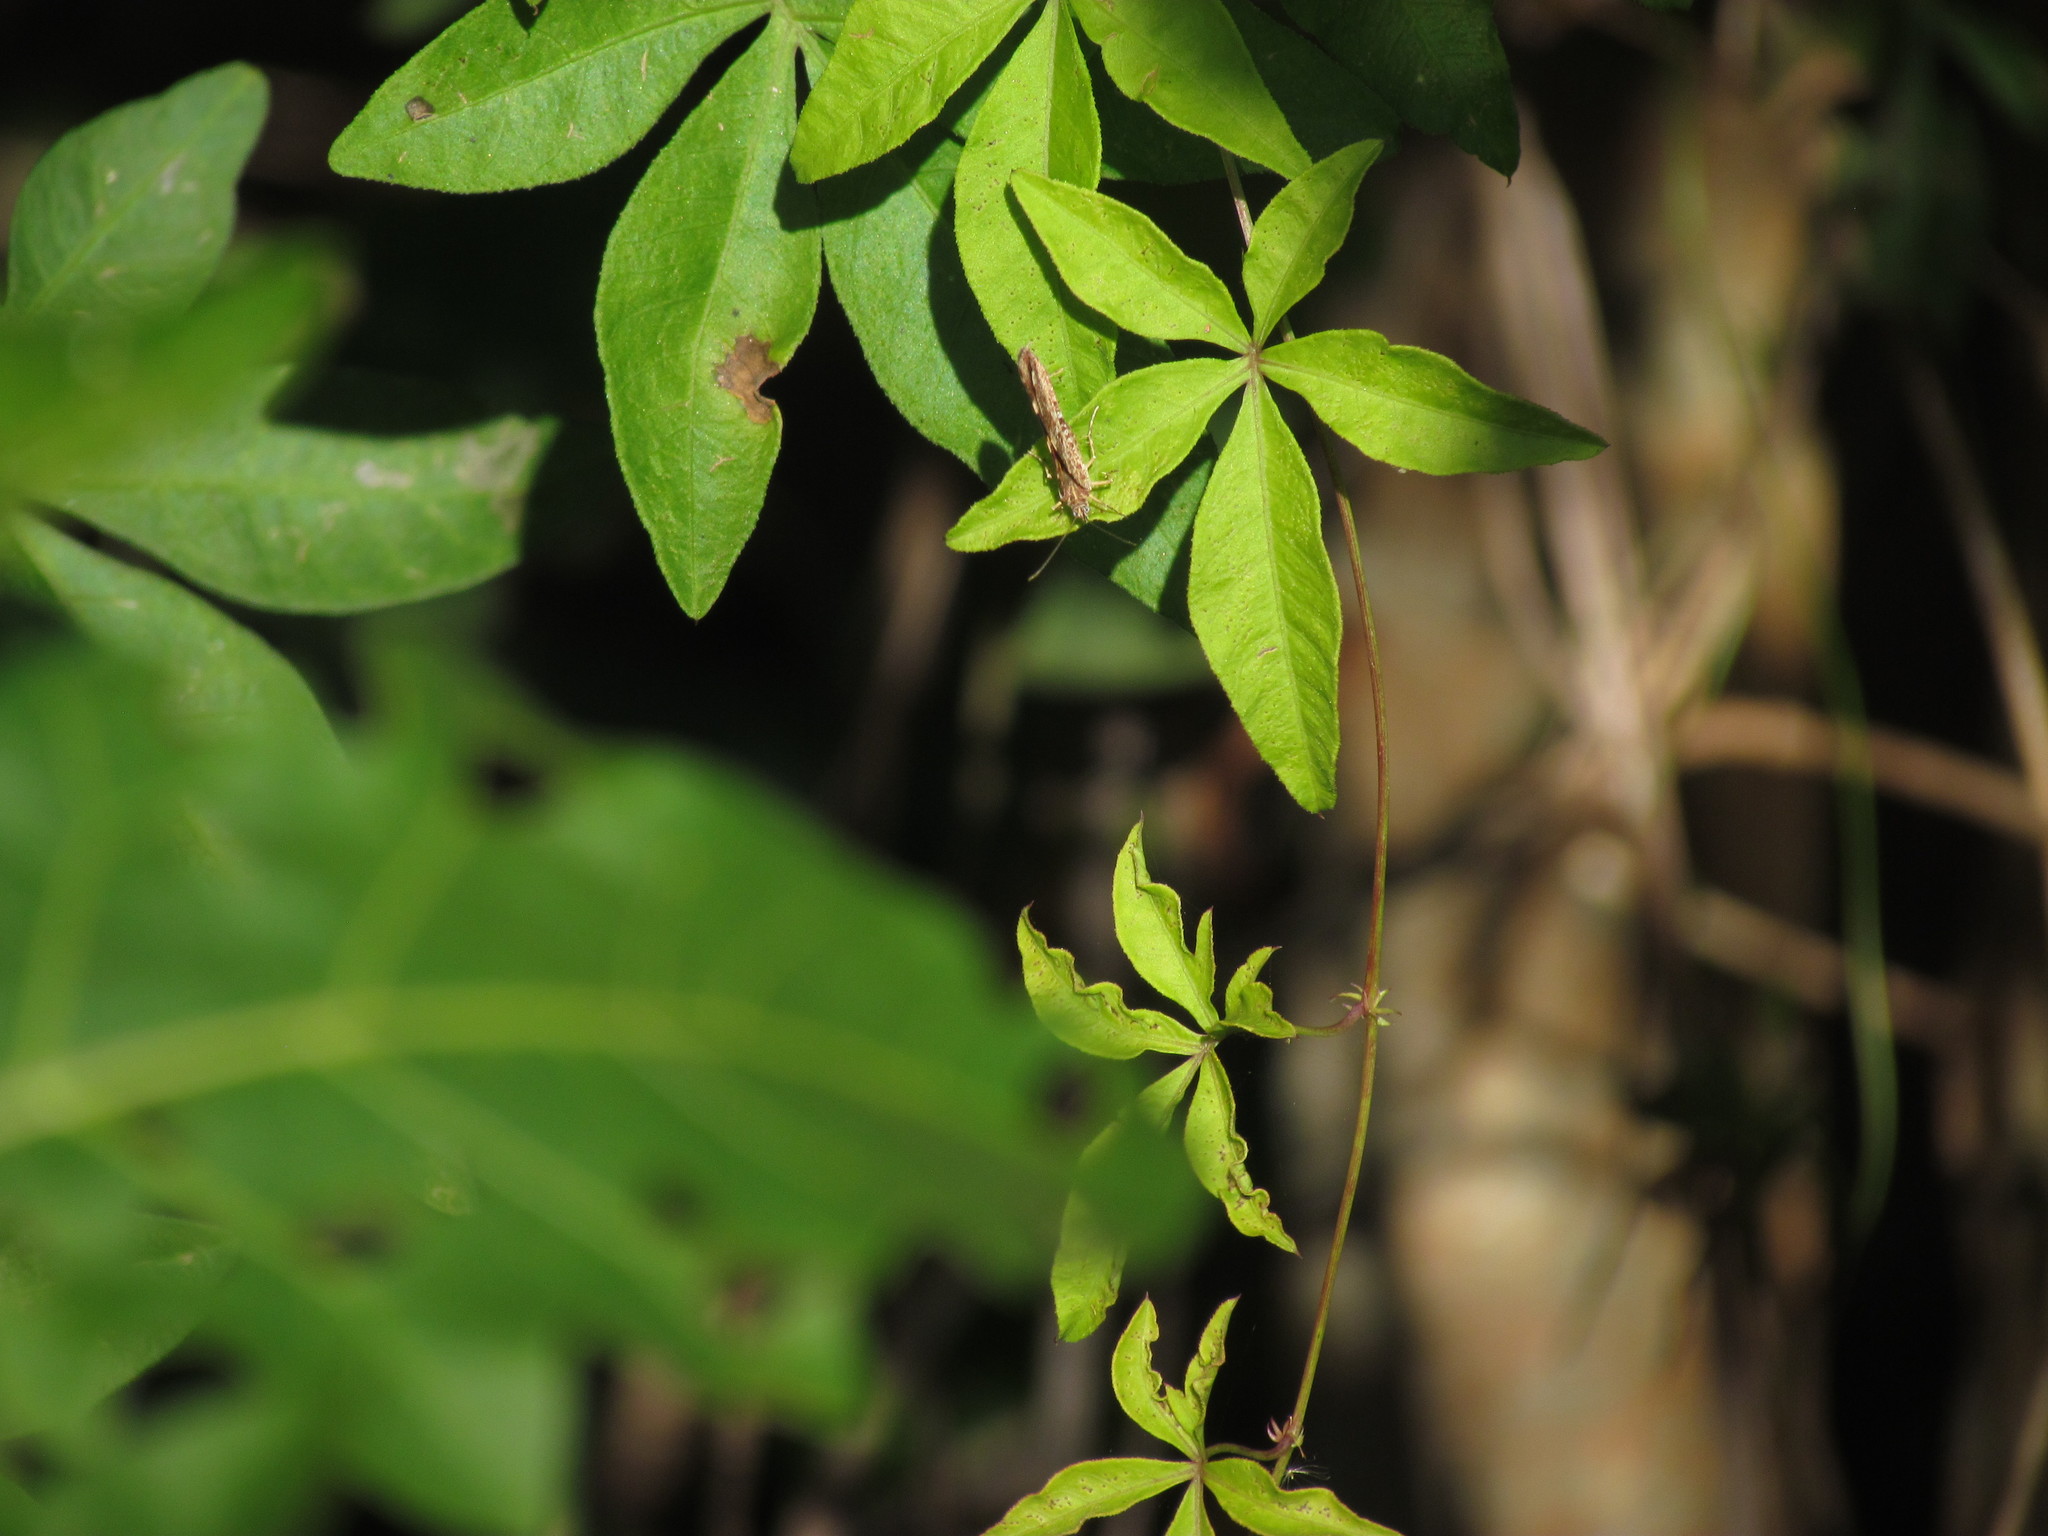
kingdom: Animalia
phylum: Arthropoda
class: Insecta
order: Lepidoptera
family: Geometridae
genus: Heterusia
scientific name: Heterusia quadruplicaria
